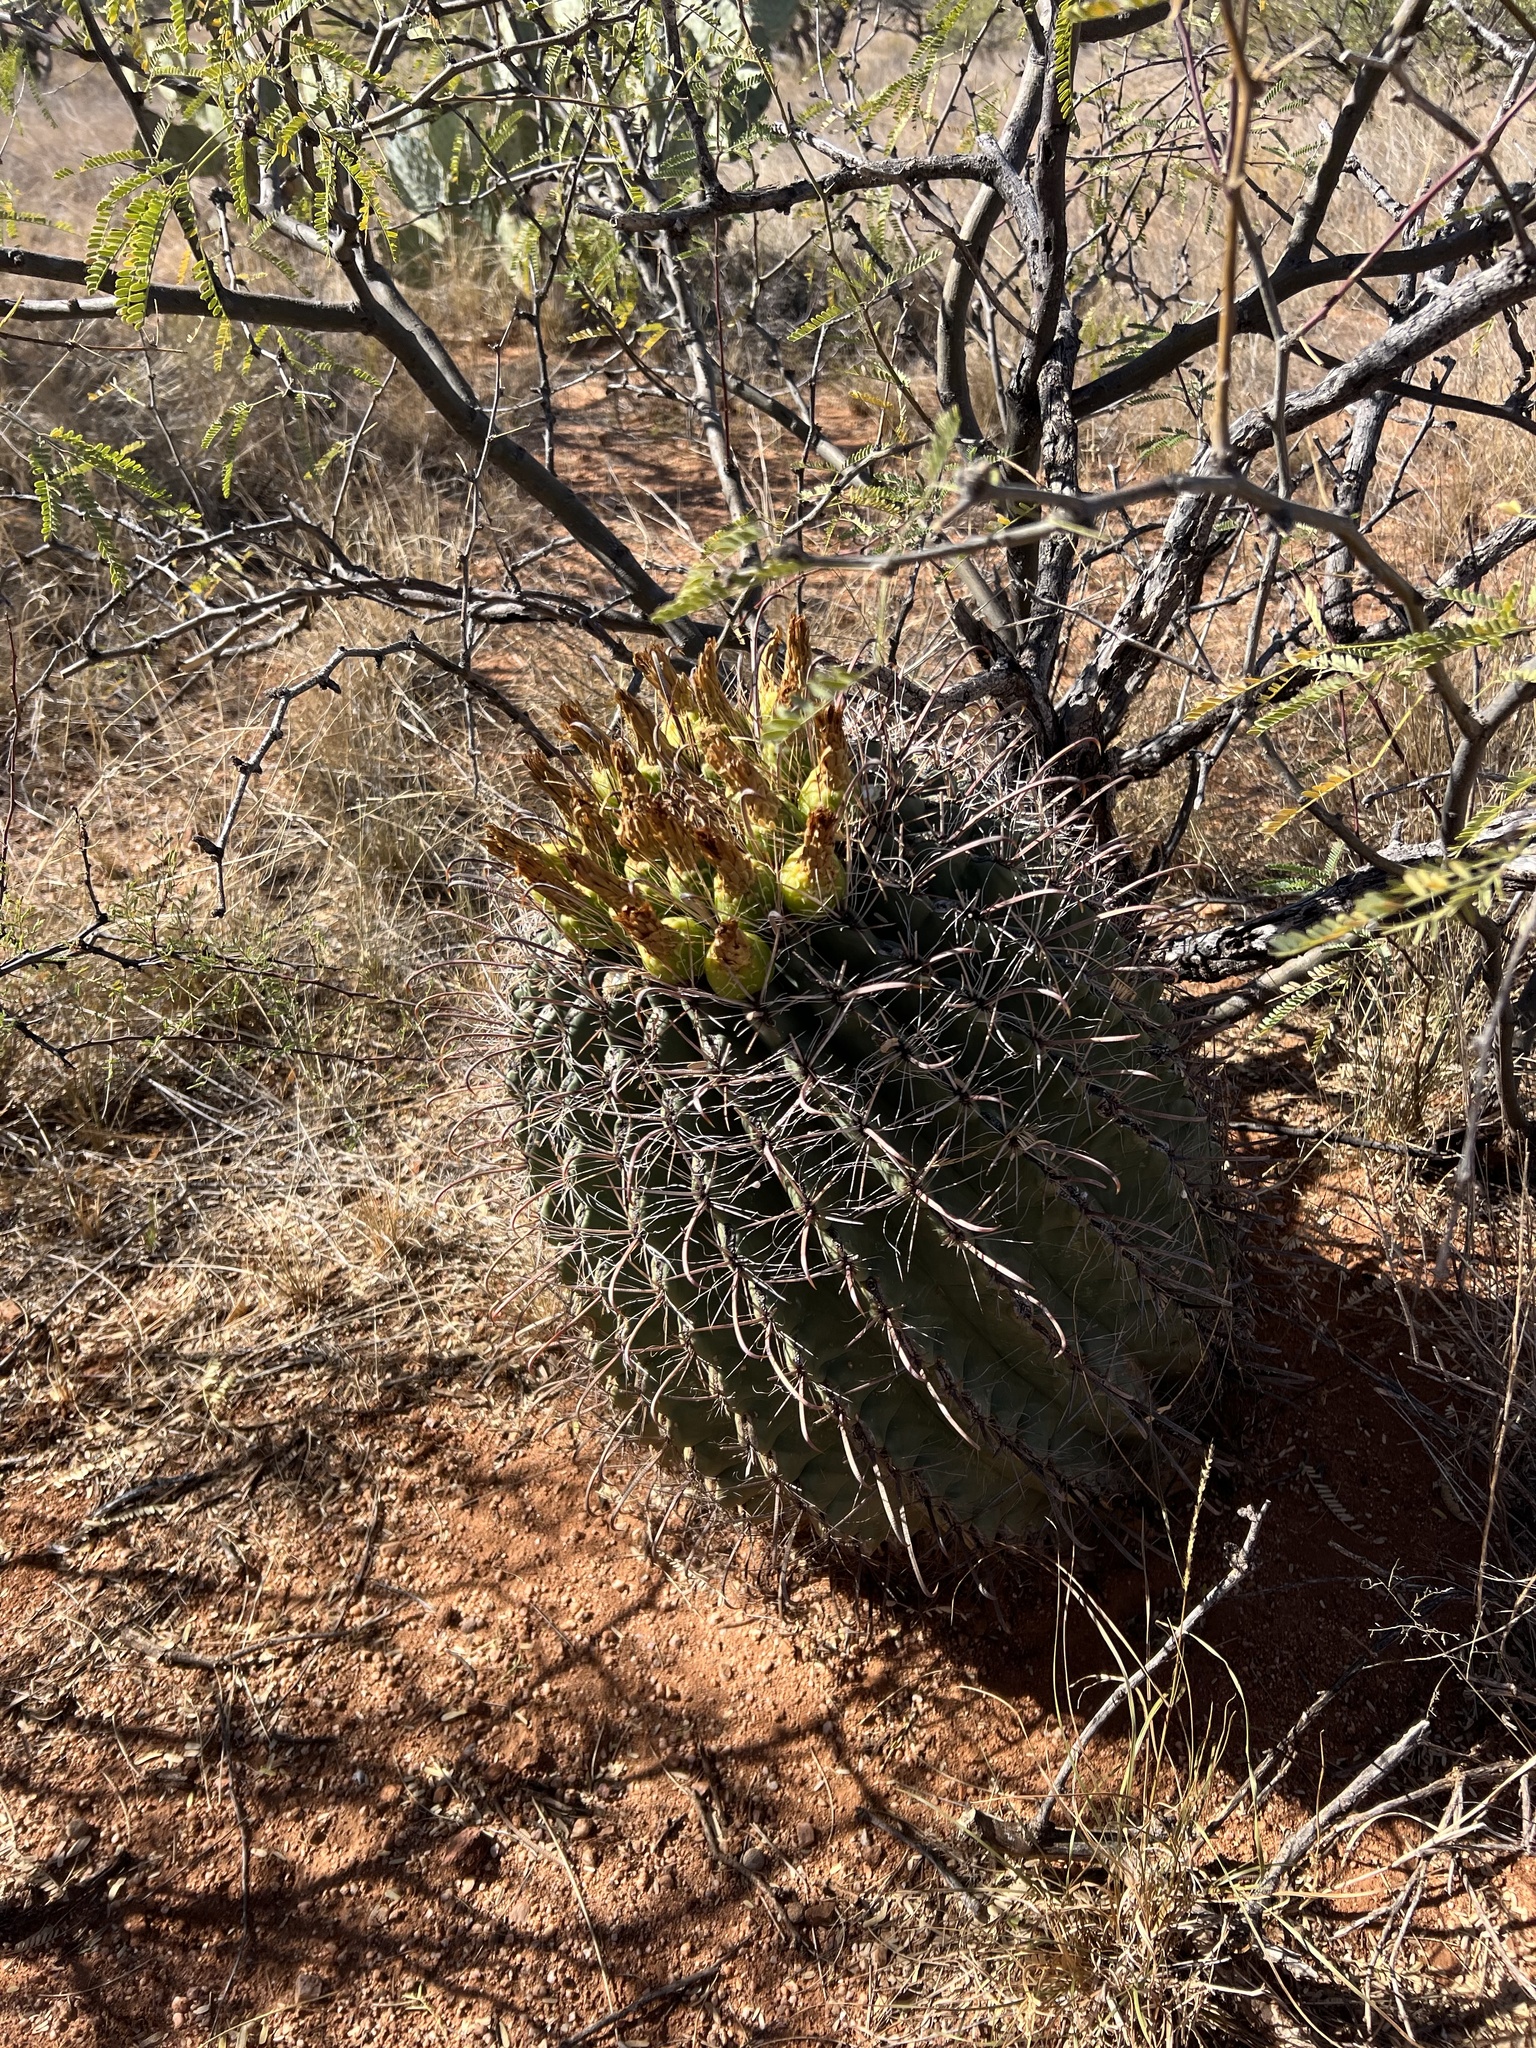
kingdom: Plantae
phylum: Tracheophyta
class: Magnoliopsida
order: Caryophyllales
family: Cactaceae
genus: Ferocactus
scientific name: Ferocactus wislizeni
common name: Candy barrel cactus
